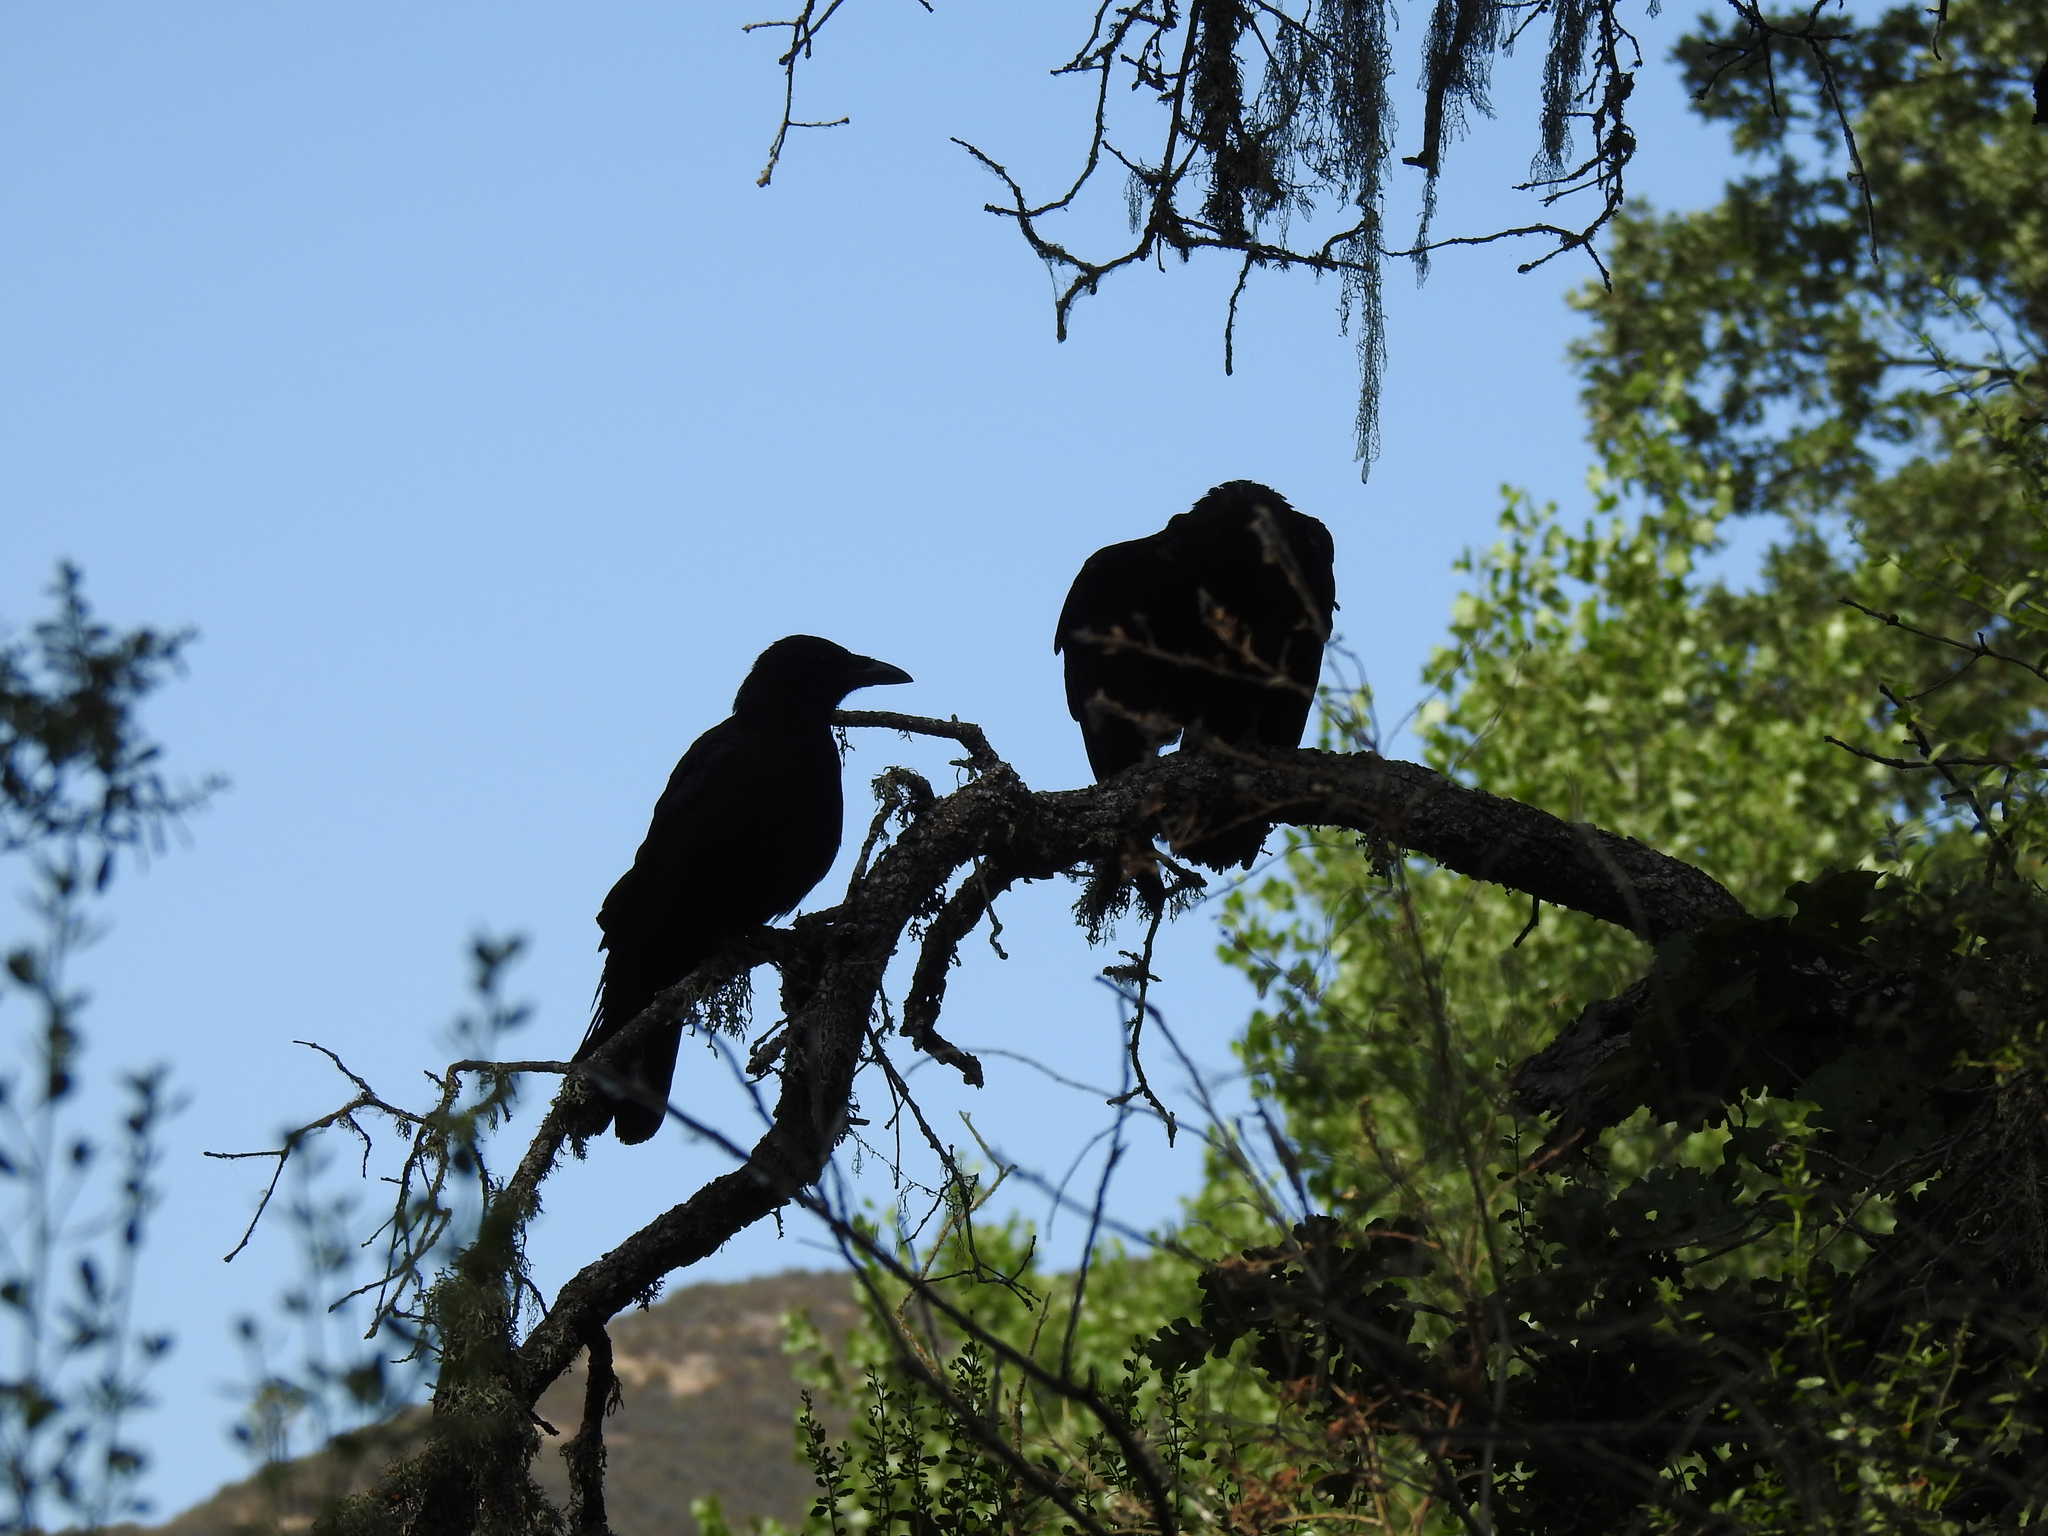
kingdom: Animalia
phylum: Chordata
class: Aves
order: Passeriformes
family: Corvidae
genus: Corvus
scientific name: Corvus brachyrhynchos
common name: American crow
